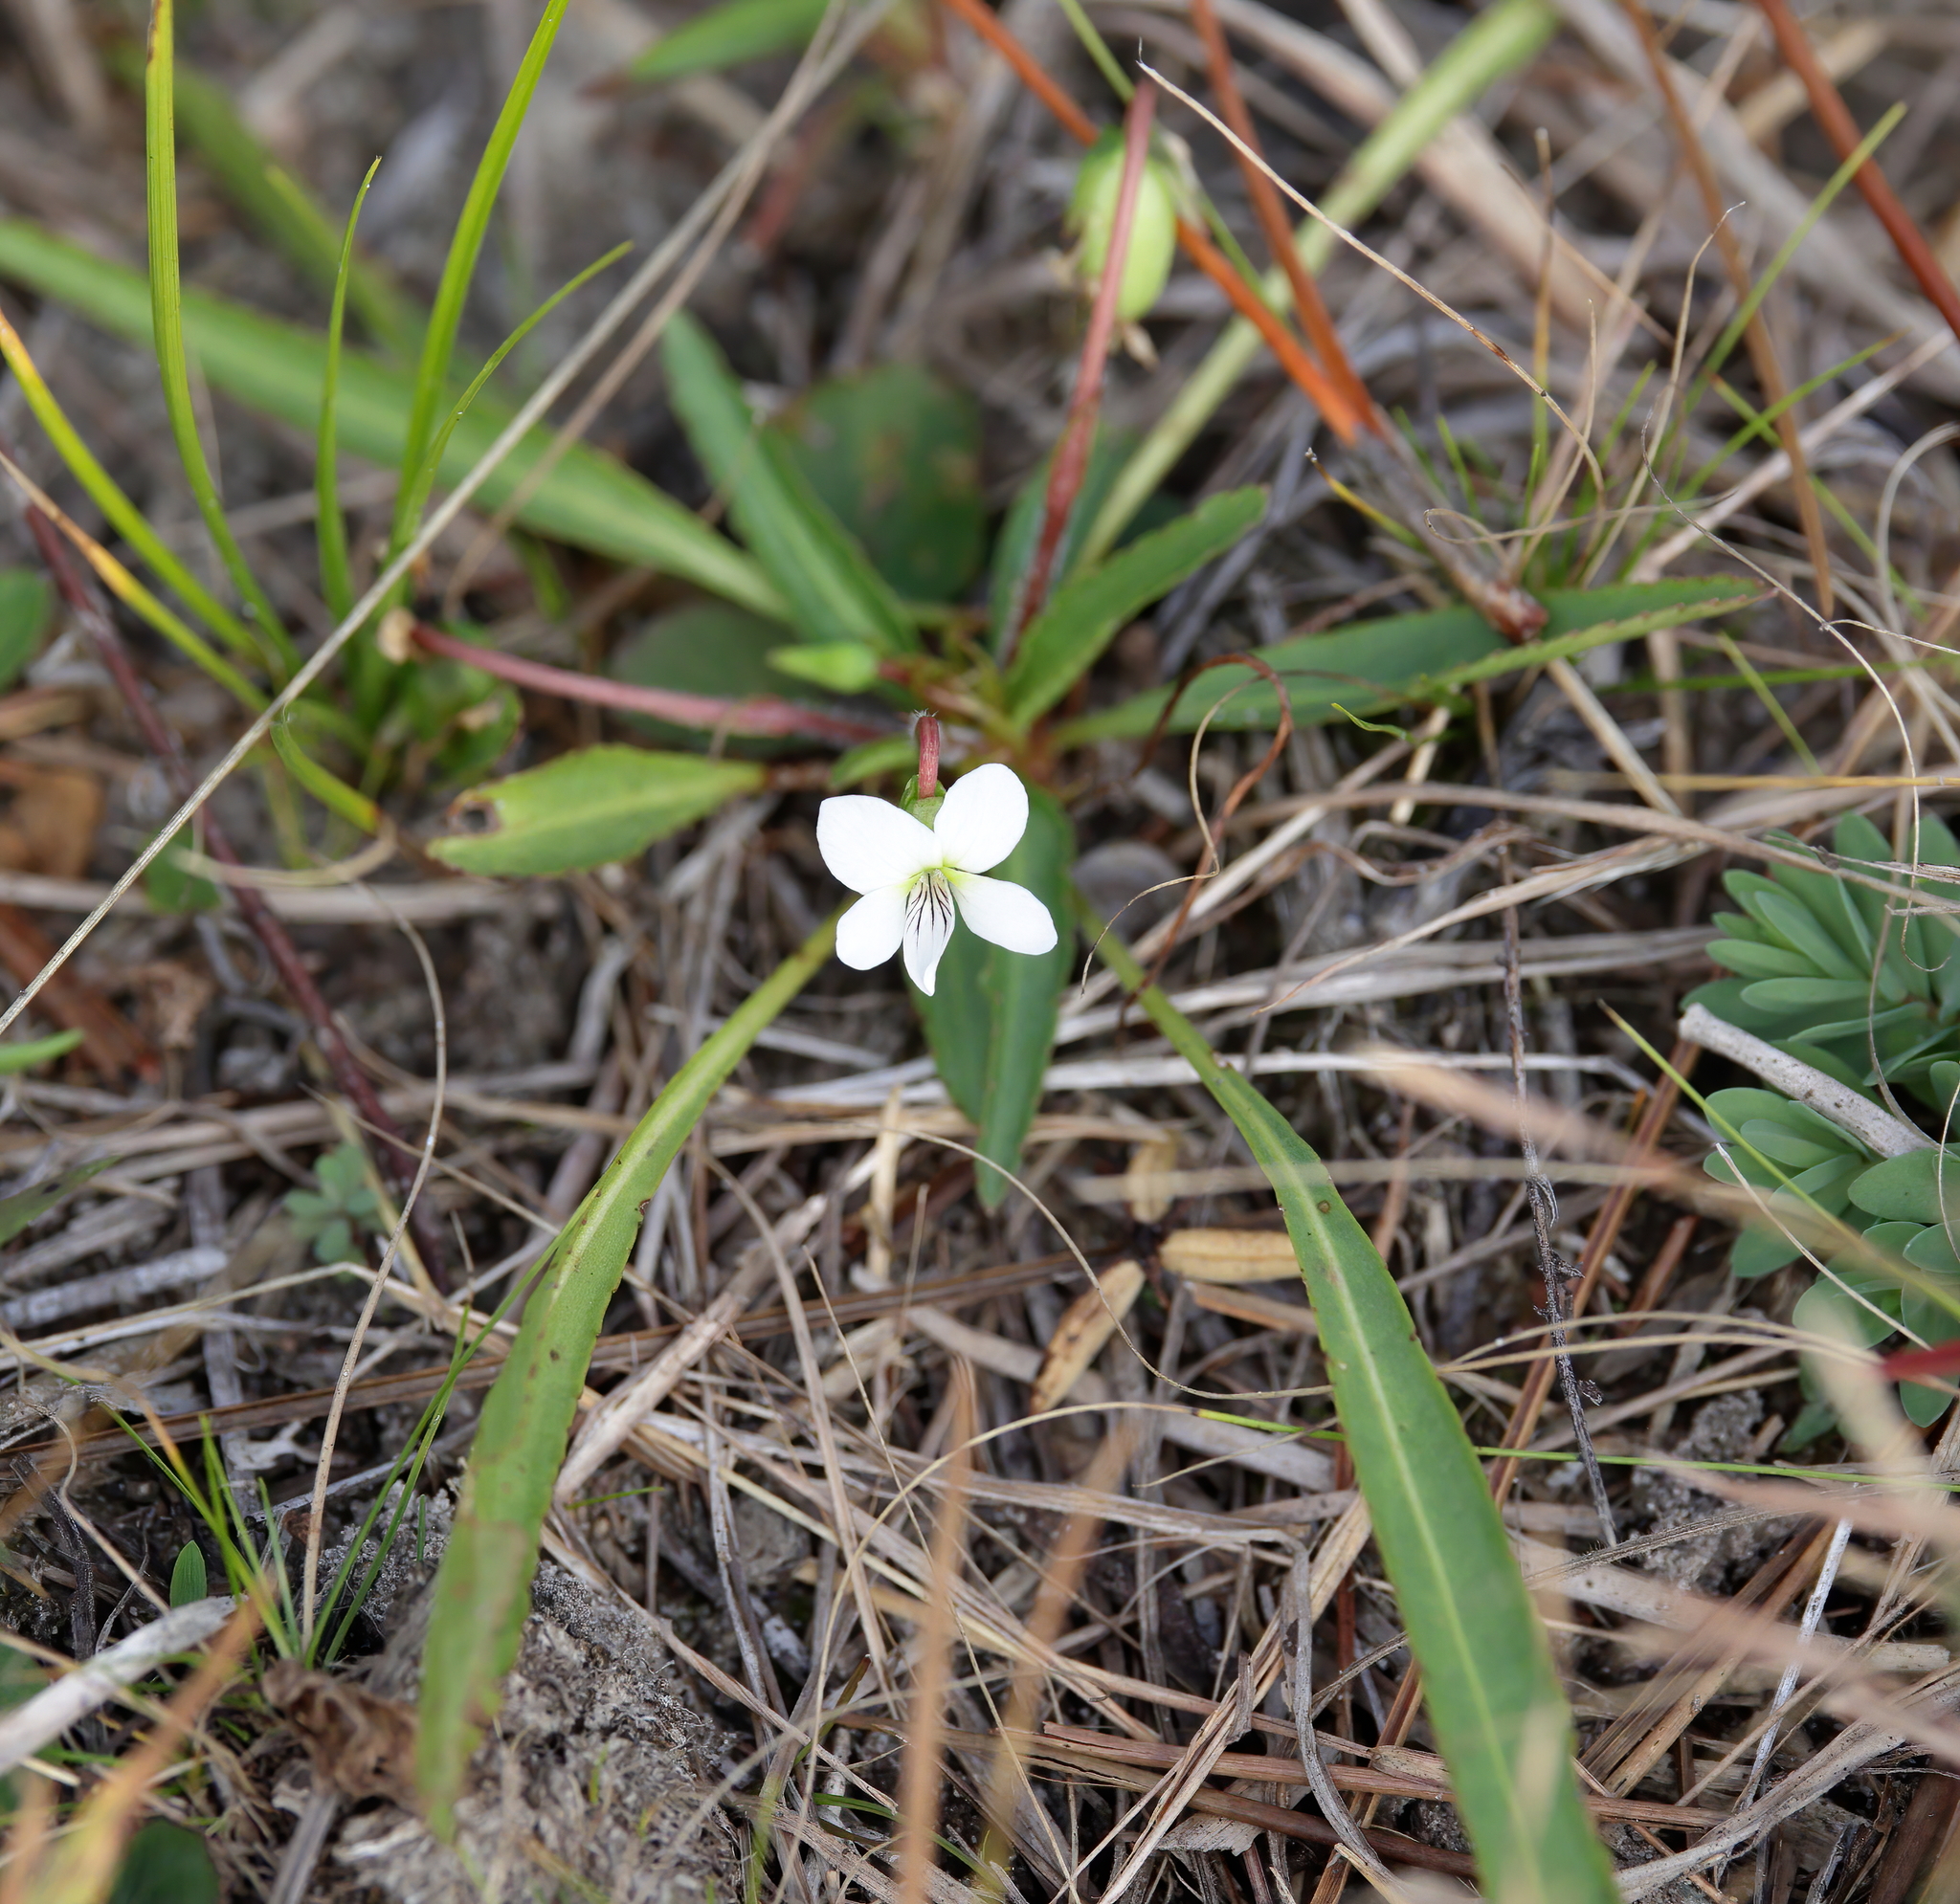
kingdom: Plantae
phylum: Tracheophyta
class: Magnoliopsida
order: Malpighiales
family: Violaceae
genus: Viola
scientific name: Viola lanceolata
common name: Bog white violet
